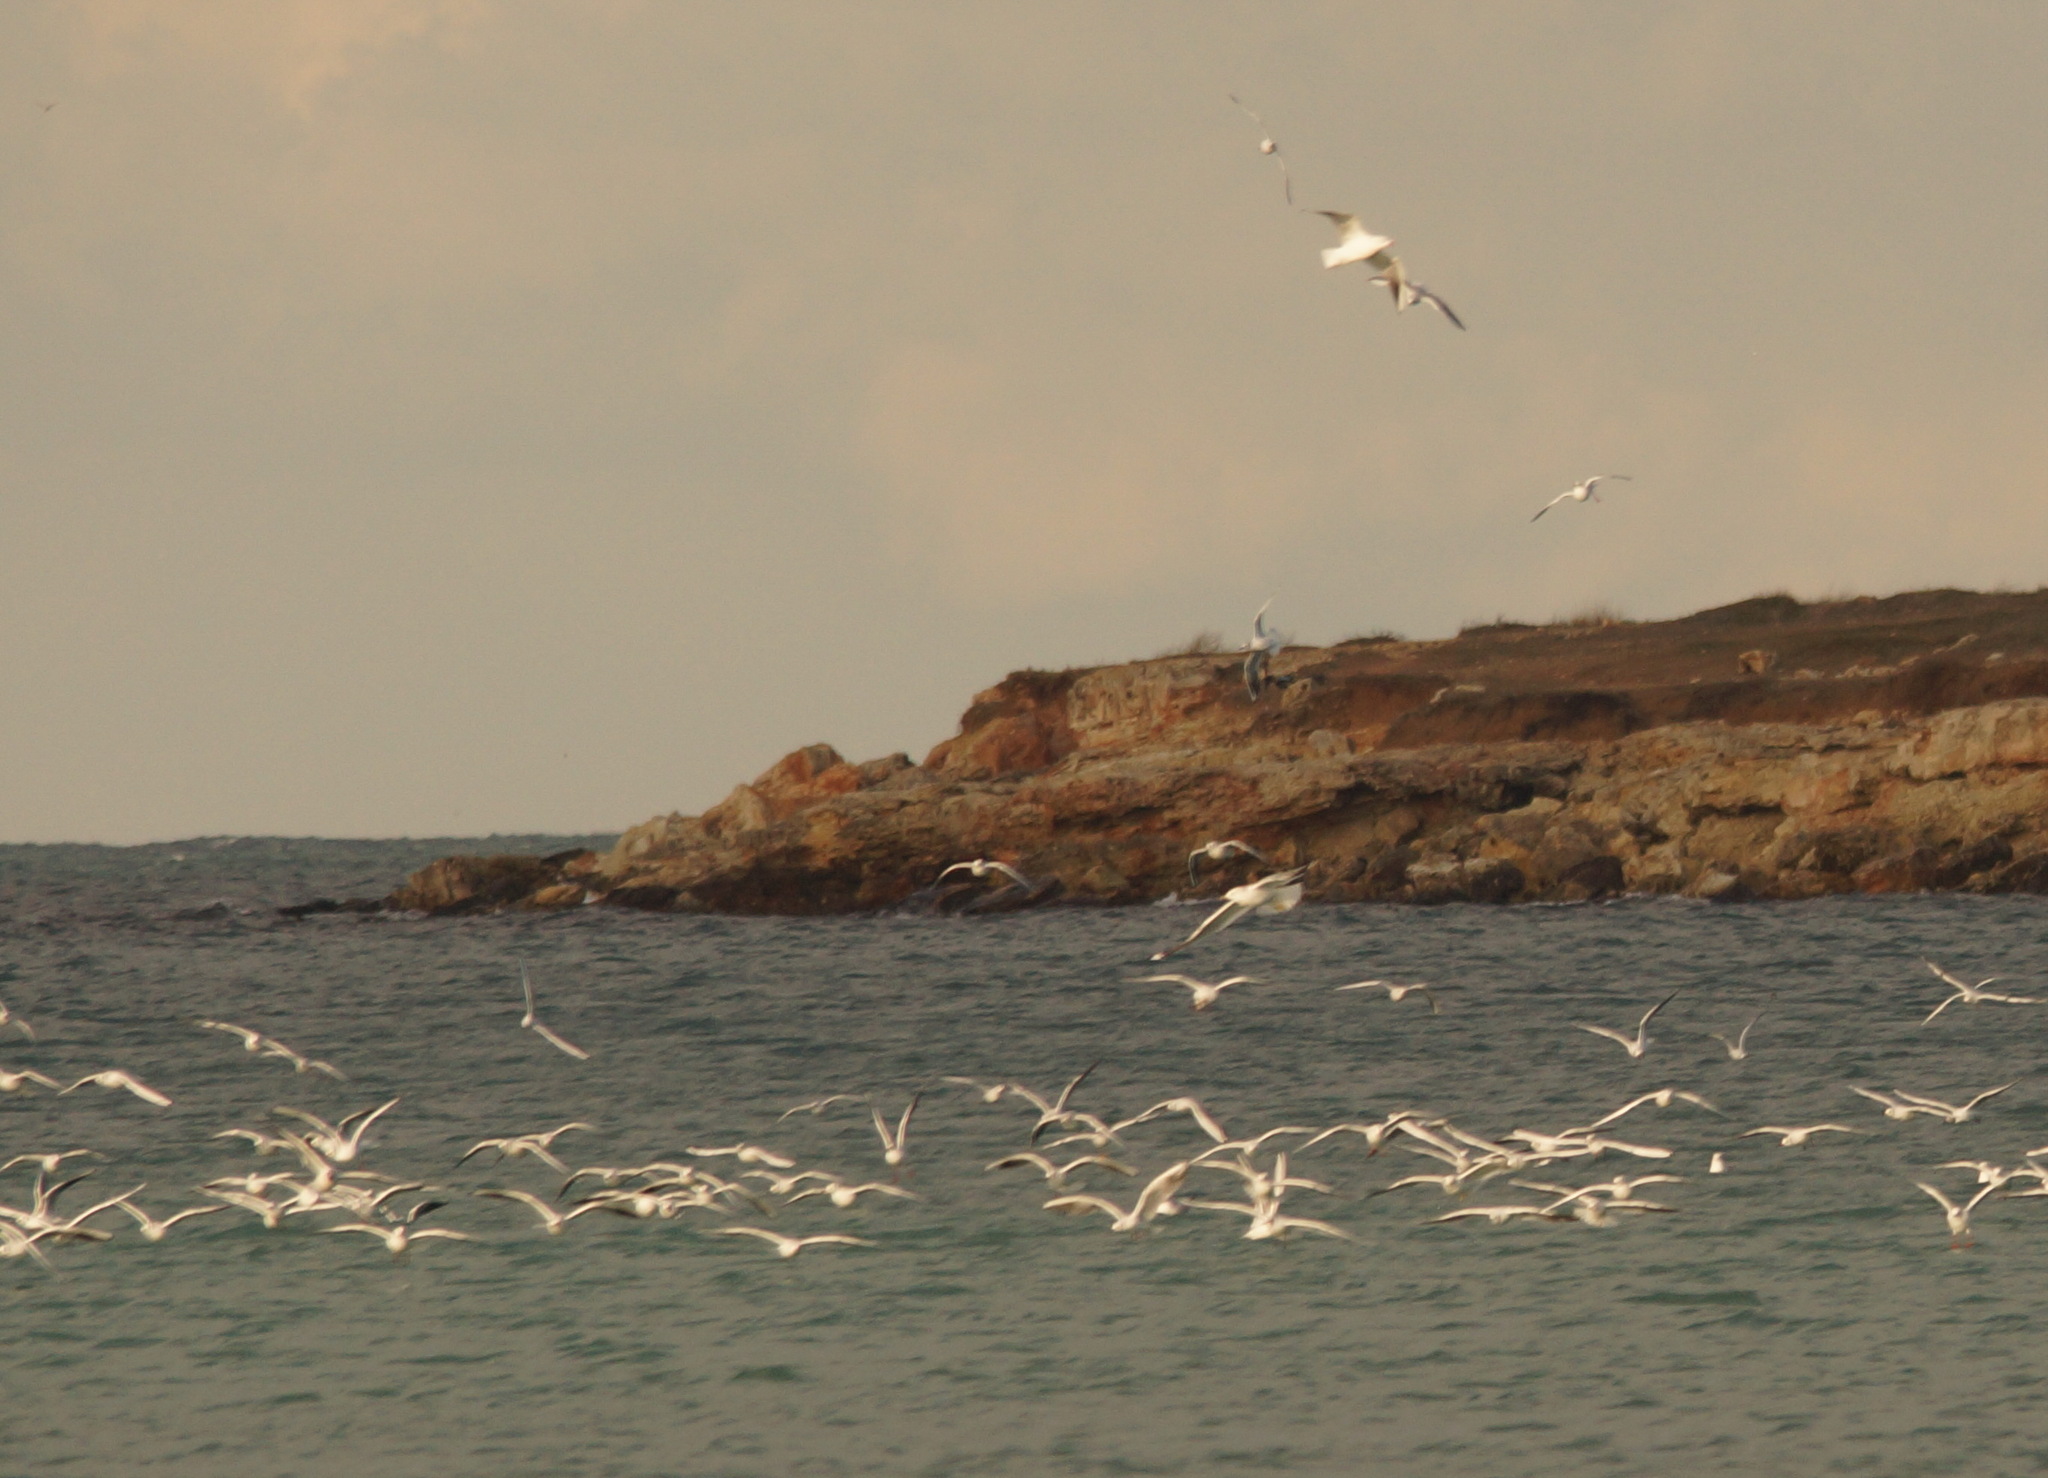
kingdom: Animalia
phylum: Chordata
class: Aves
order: Charadriiformes
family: Laridae
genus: Chroicocephalus
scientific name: Chroicocephalus ridibundus
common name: Black-headed gull
